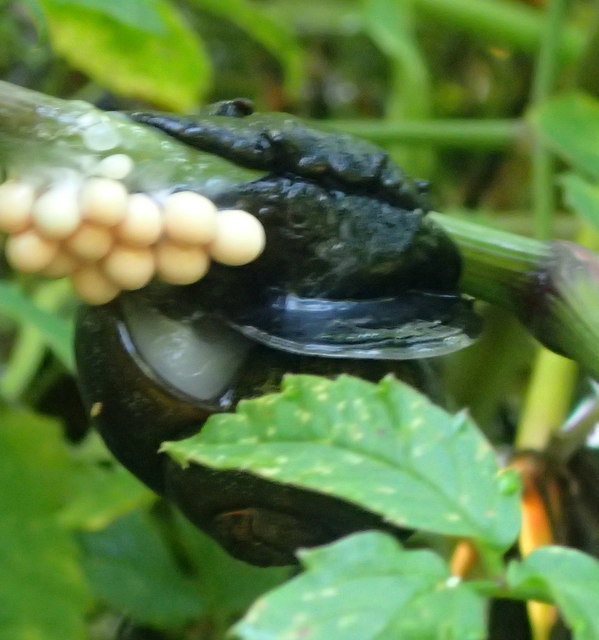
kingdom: Animalia
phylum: Mollusca
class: Gastropoda
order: Architaenioglossa
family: Ampullariidae
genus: Pomacea
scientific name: Pomacea paludosa
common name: Florida applesnail
